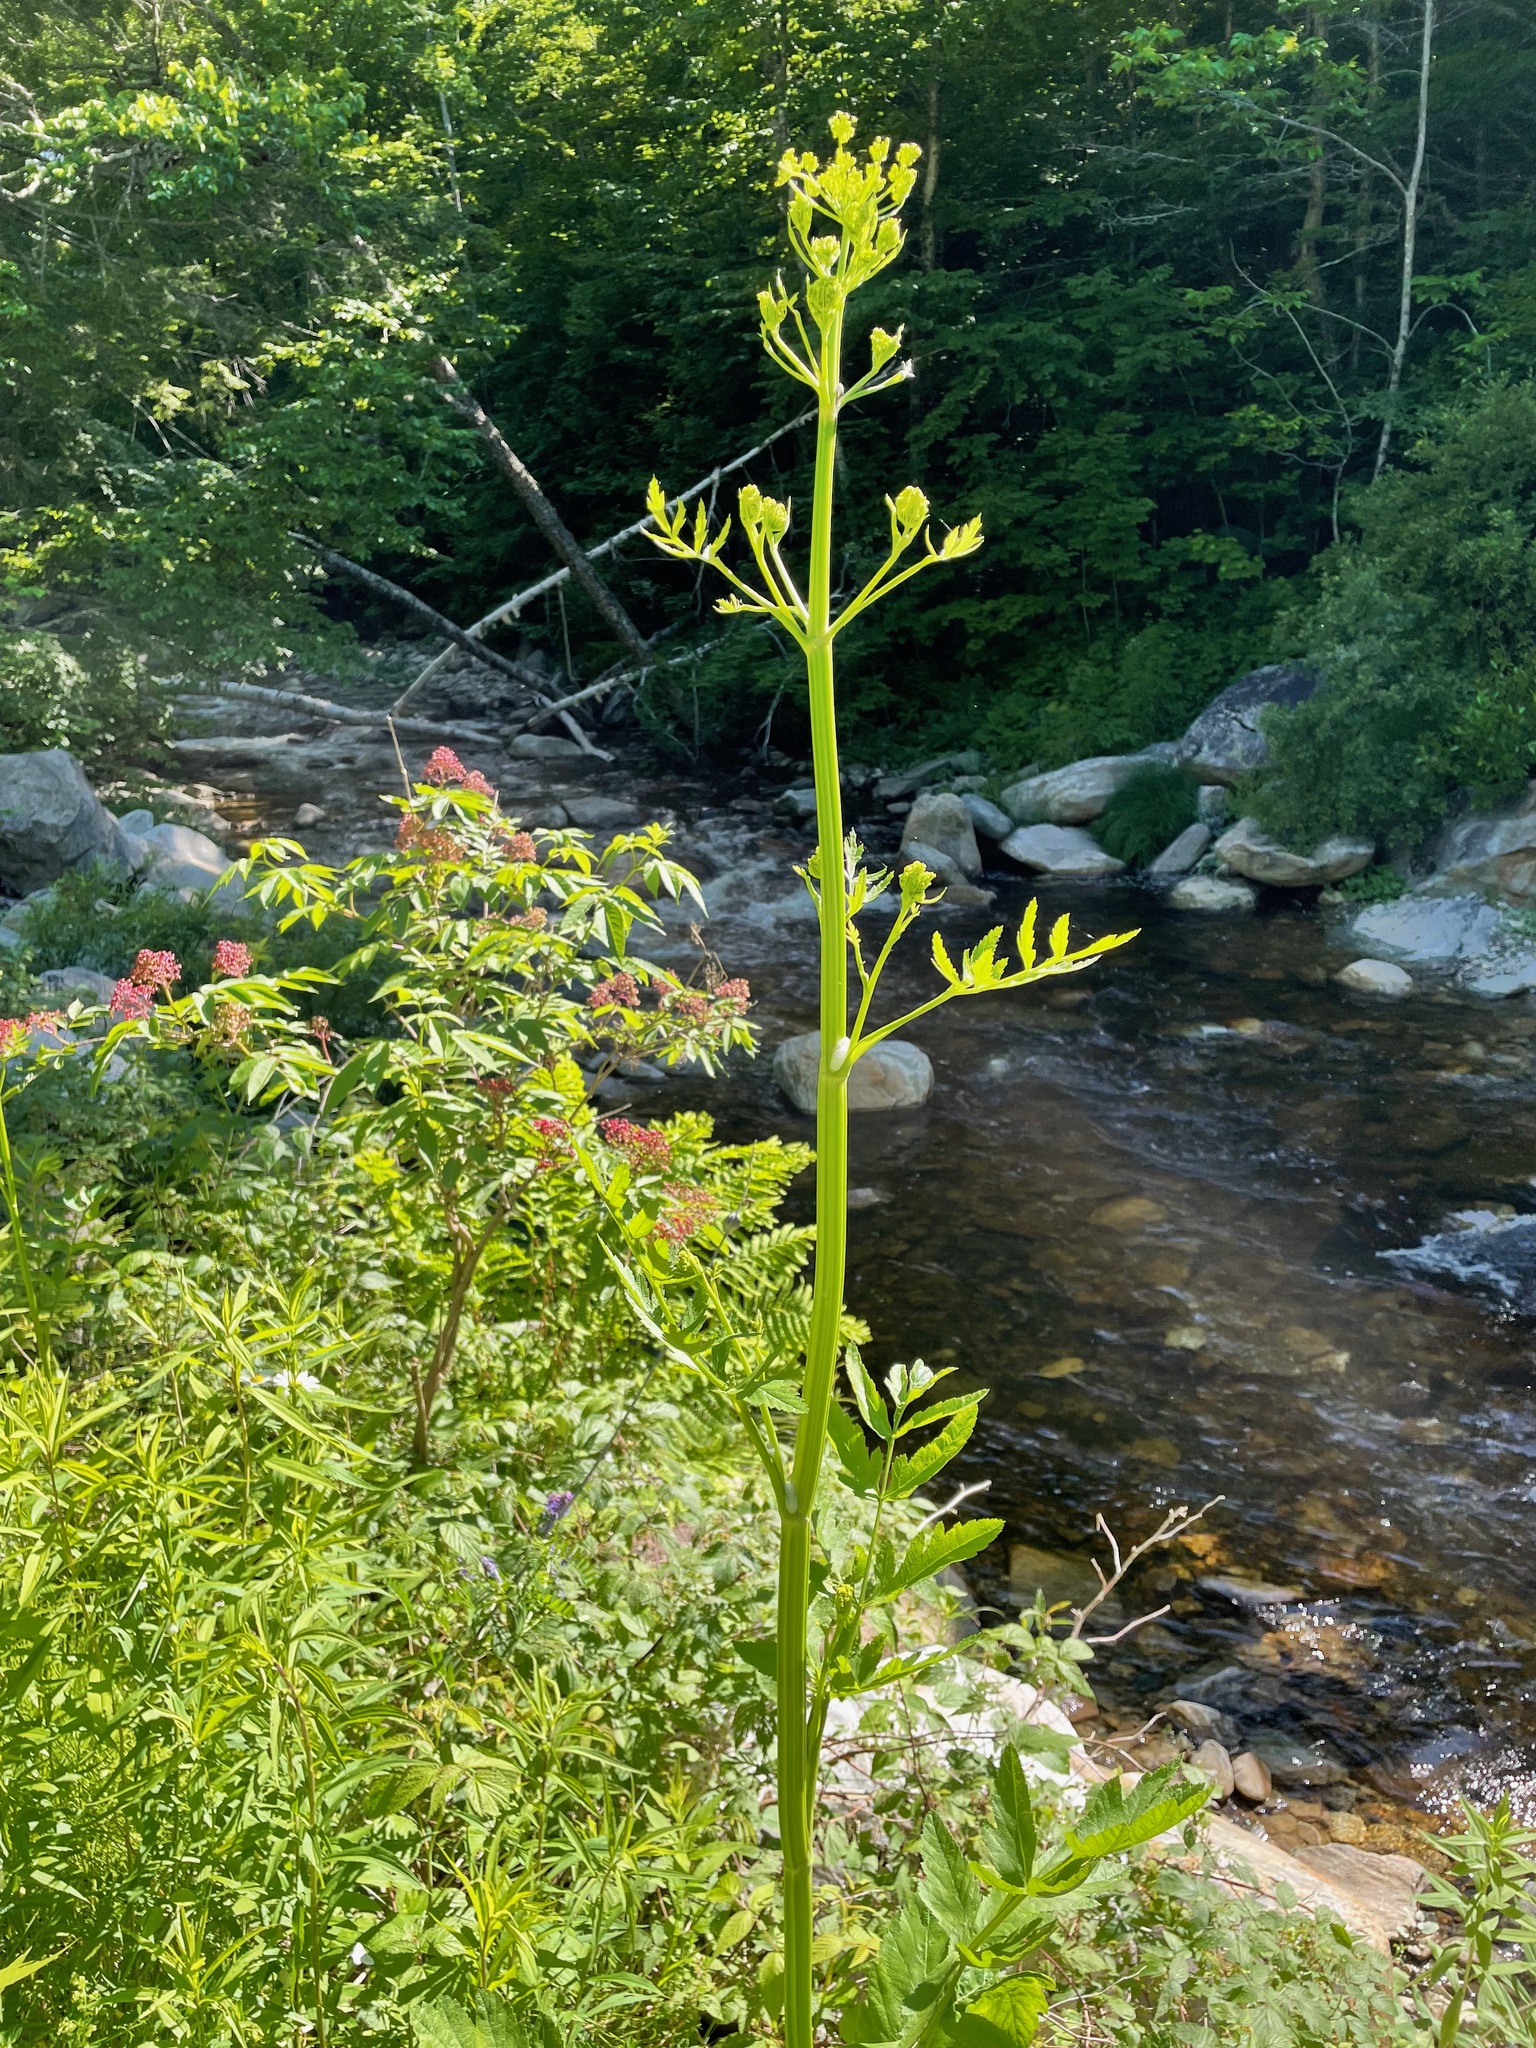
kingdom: Plantae
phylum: Tracheophyta
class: Magnoliopsida
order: Apiales
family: Apiaceae
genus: Pastinaca
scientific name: Pastinaca sativa
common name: Wild parsnip
